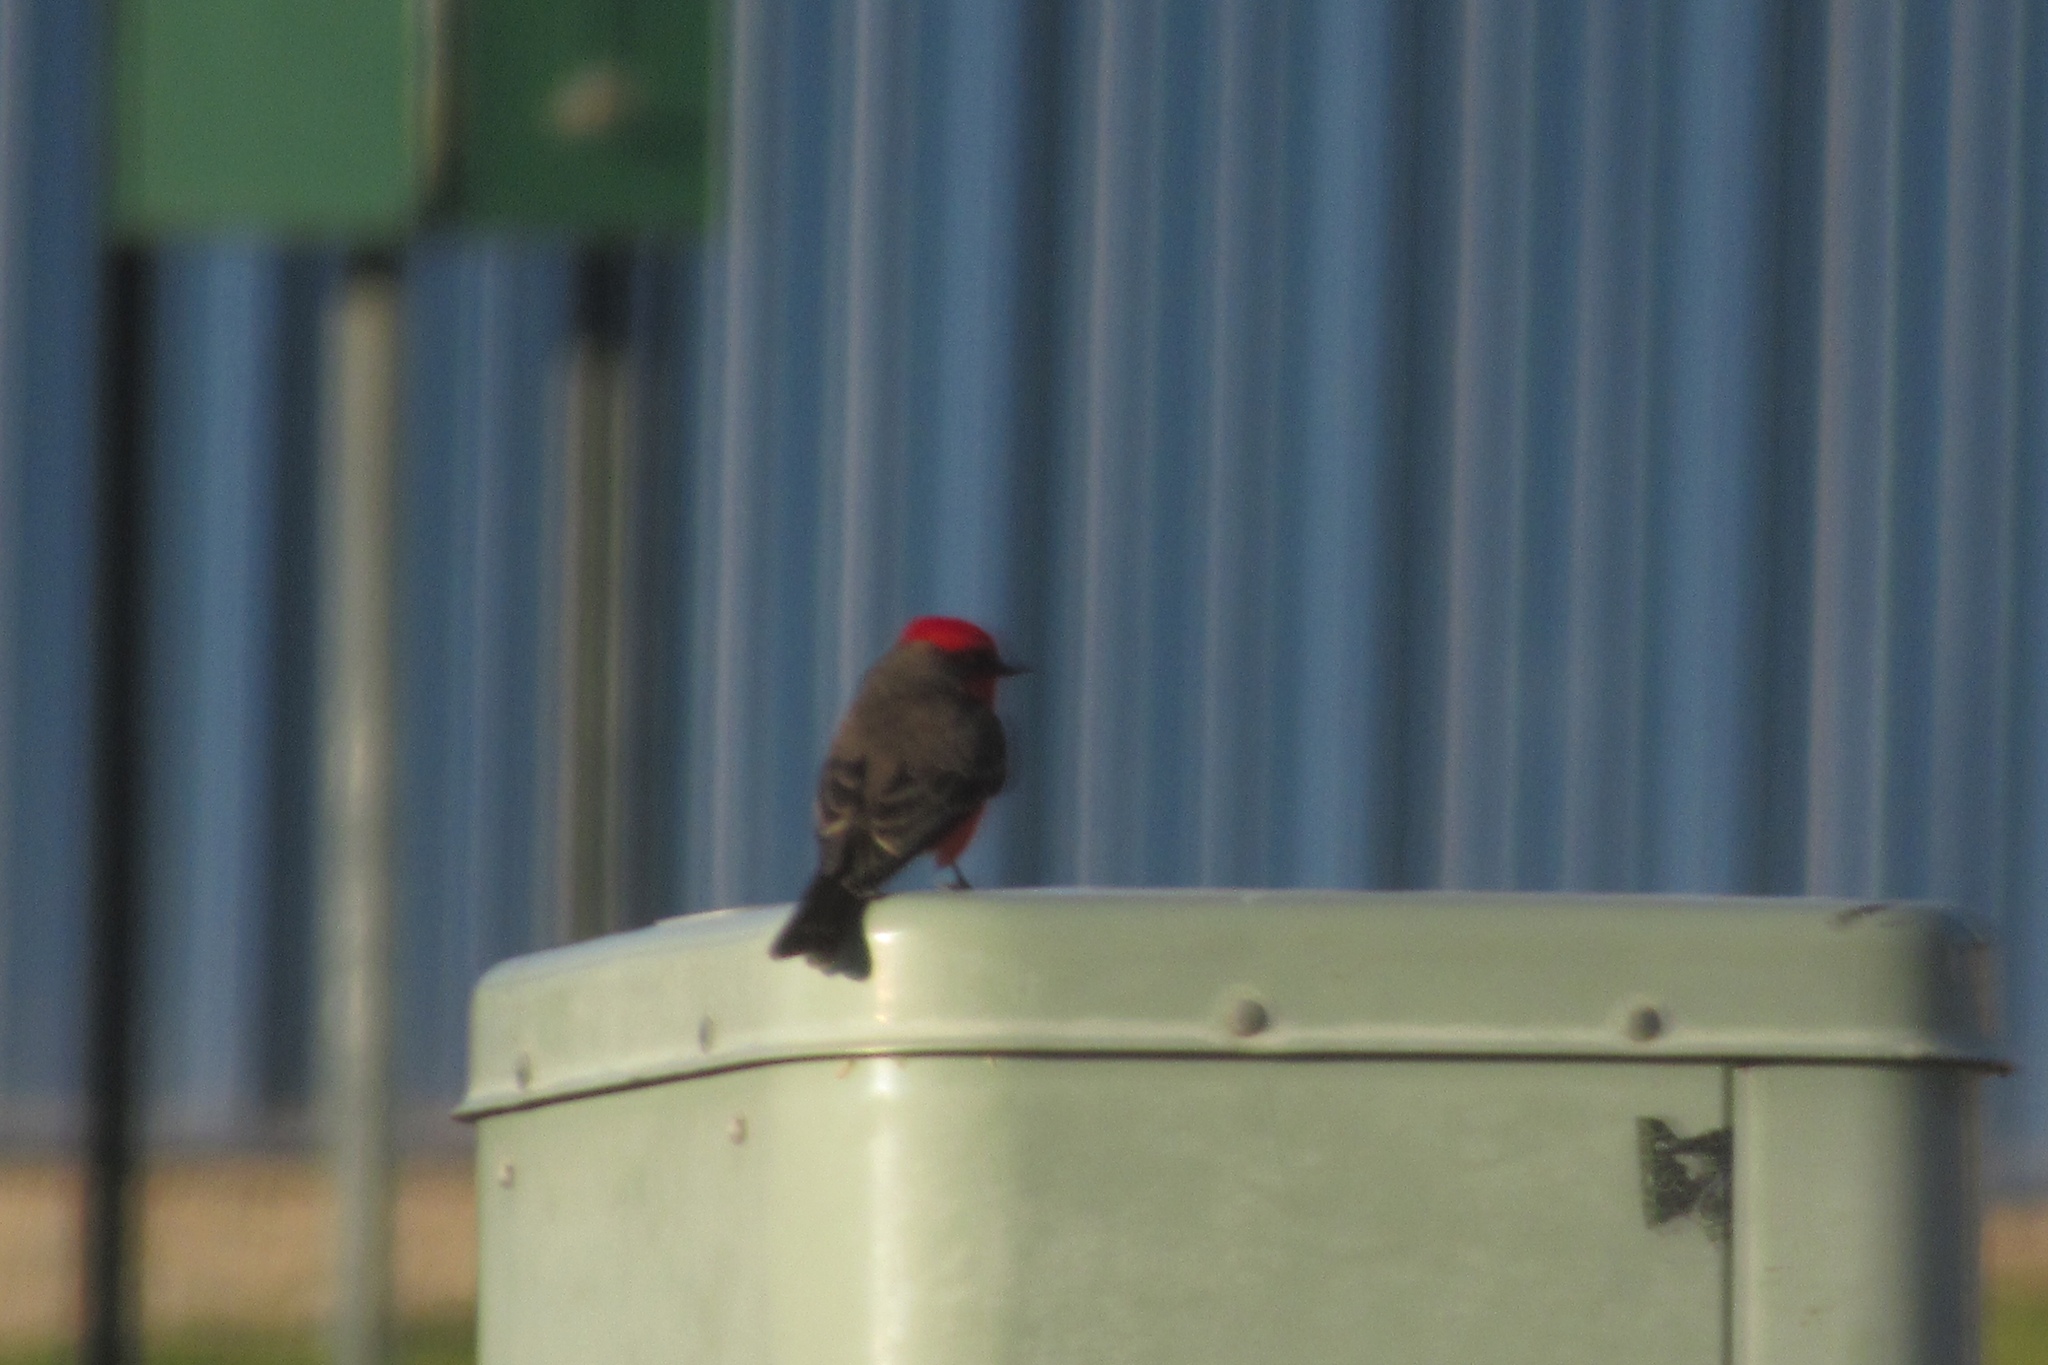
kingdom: Animalia
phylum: Chordata
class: Aves
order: Passeriformes
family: Tyrannidae
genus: Pyrocephalus
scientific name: Pyrocephalus rubinus
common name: Vermilion flycatcher
